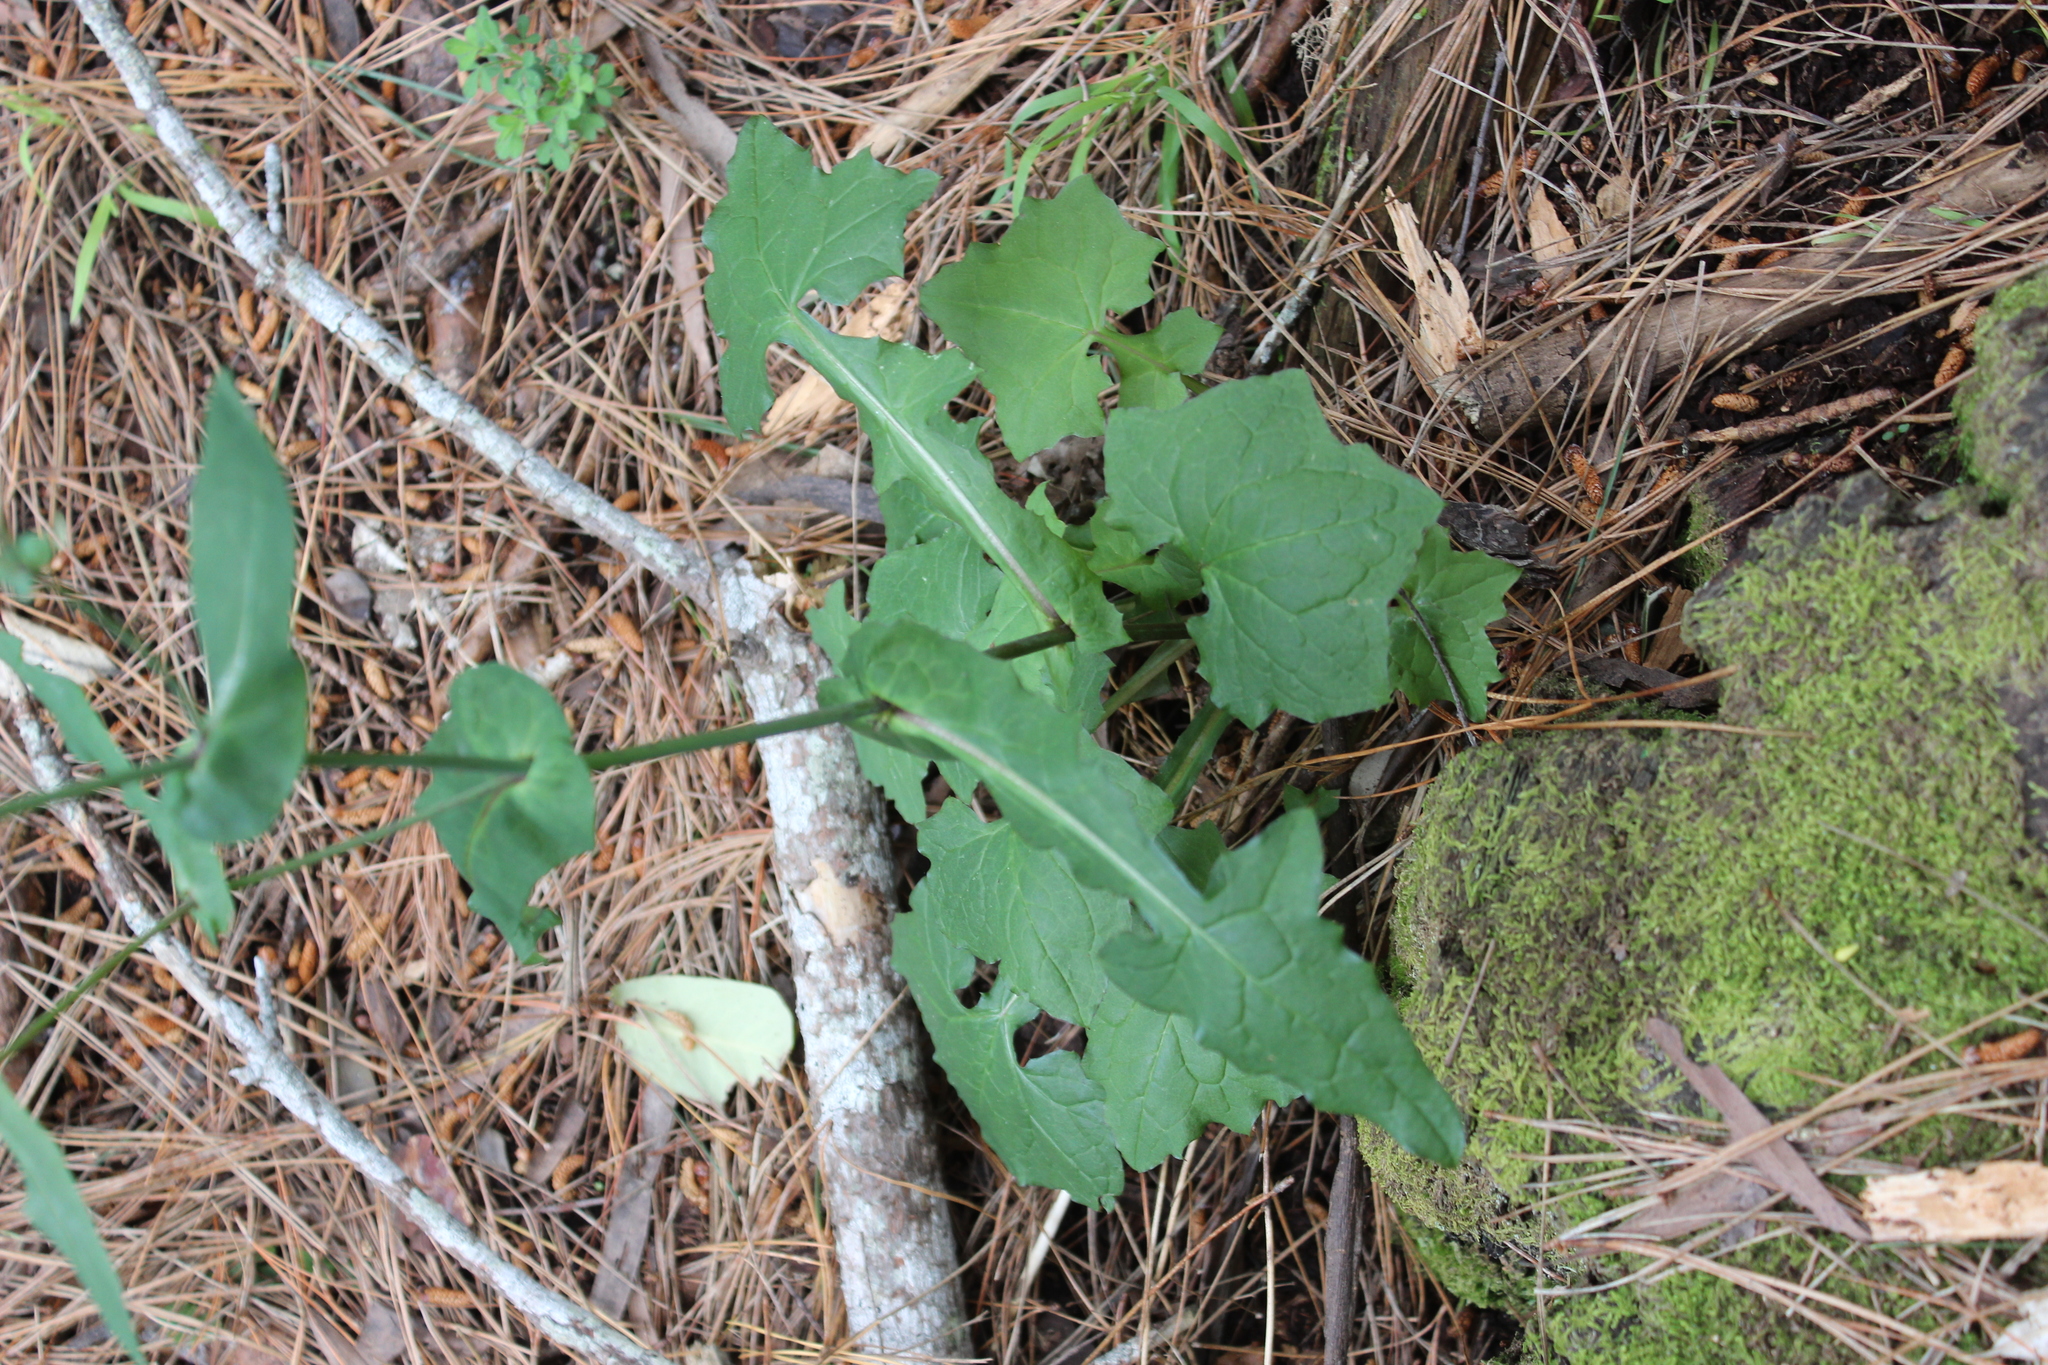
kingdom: Plantae
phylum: Tracheophyta
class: Magnoliopsida
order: Asterales
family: Asteraceae
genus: Mycelis
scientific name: Mycelis muralis
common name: Wall lettuce
